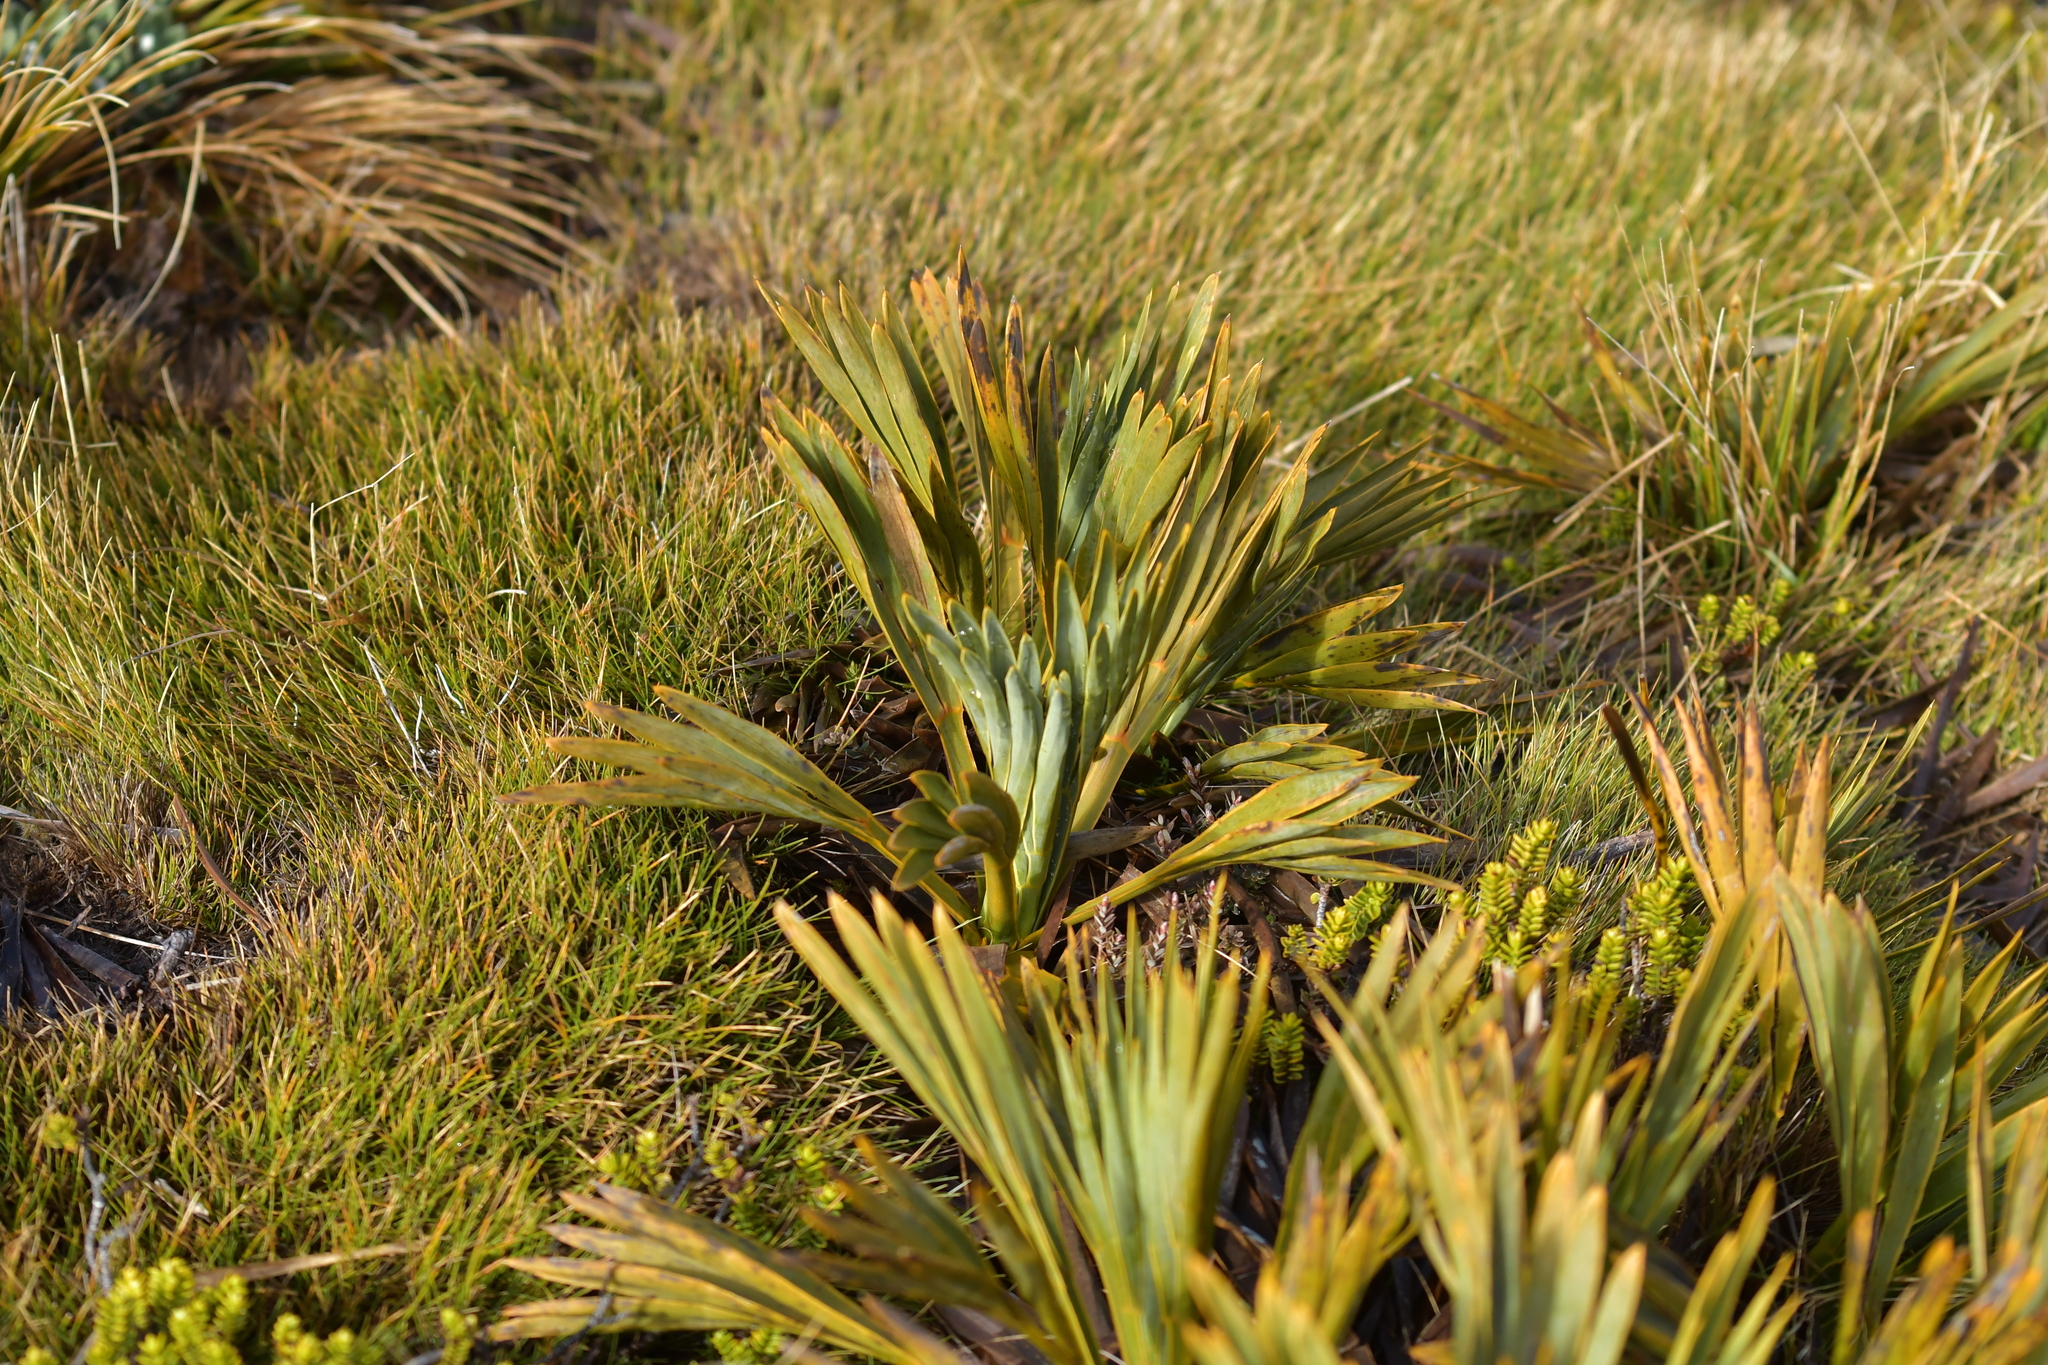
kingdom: Plantae
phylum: Tracheophyta
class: Magnoliopsida
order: Apiales
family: Apiaceae
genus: Aciphylla
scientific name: Aciphylla ferox
